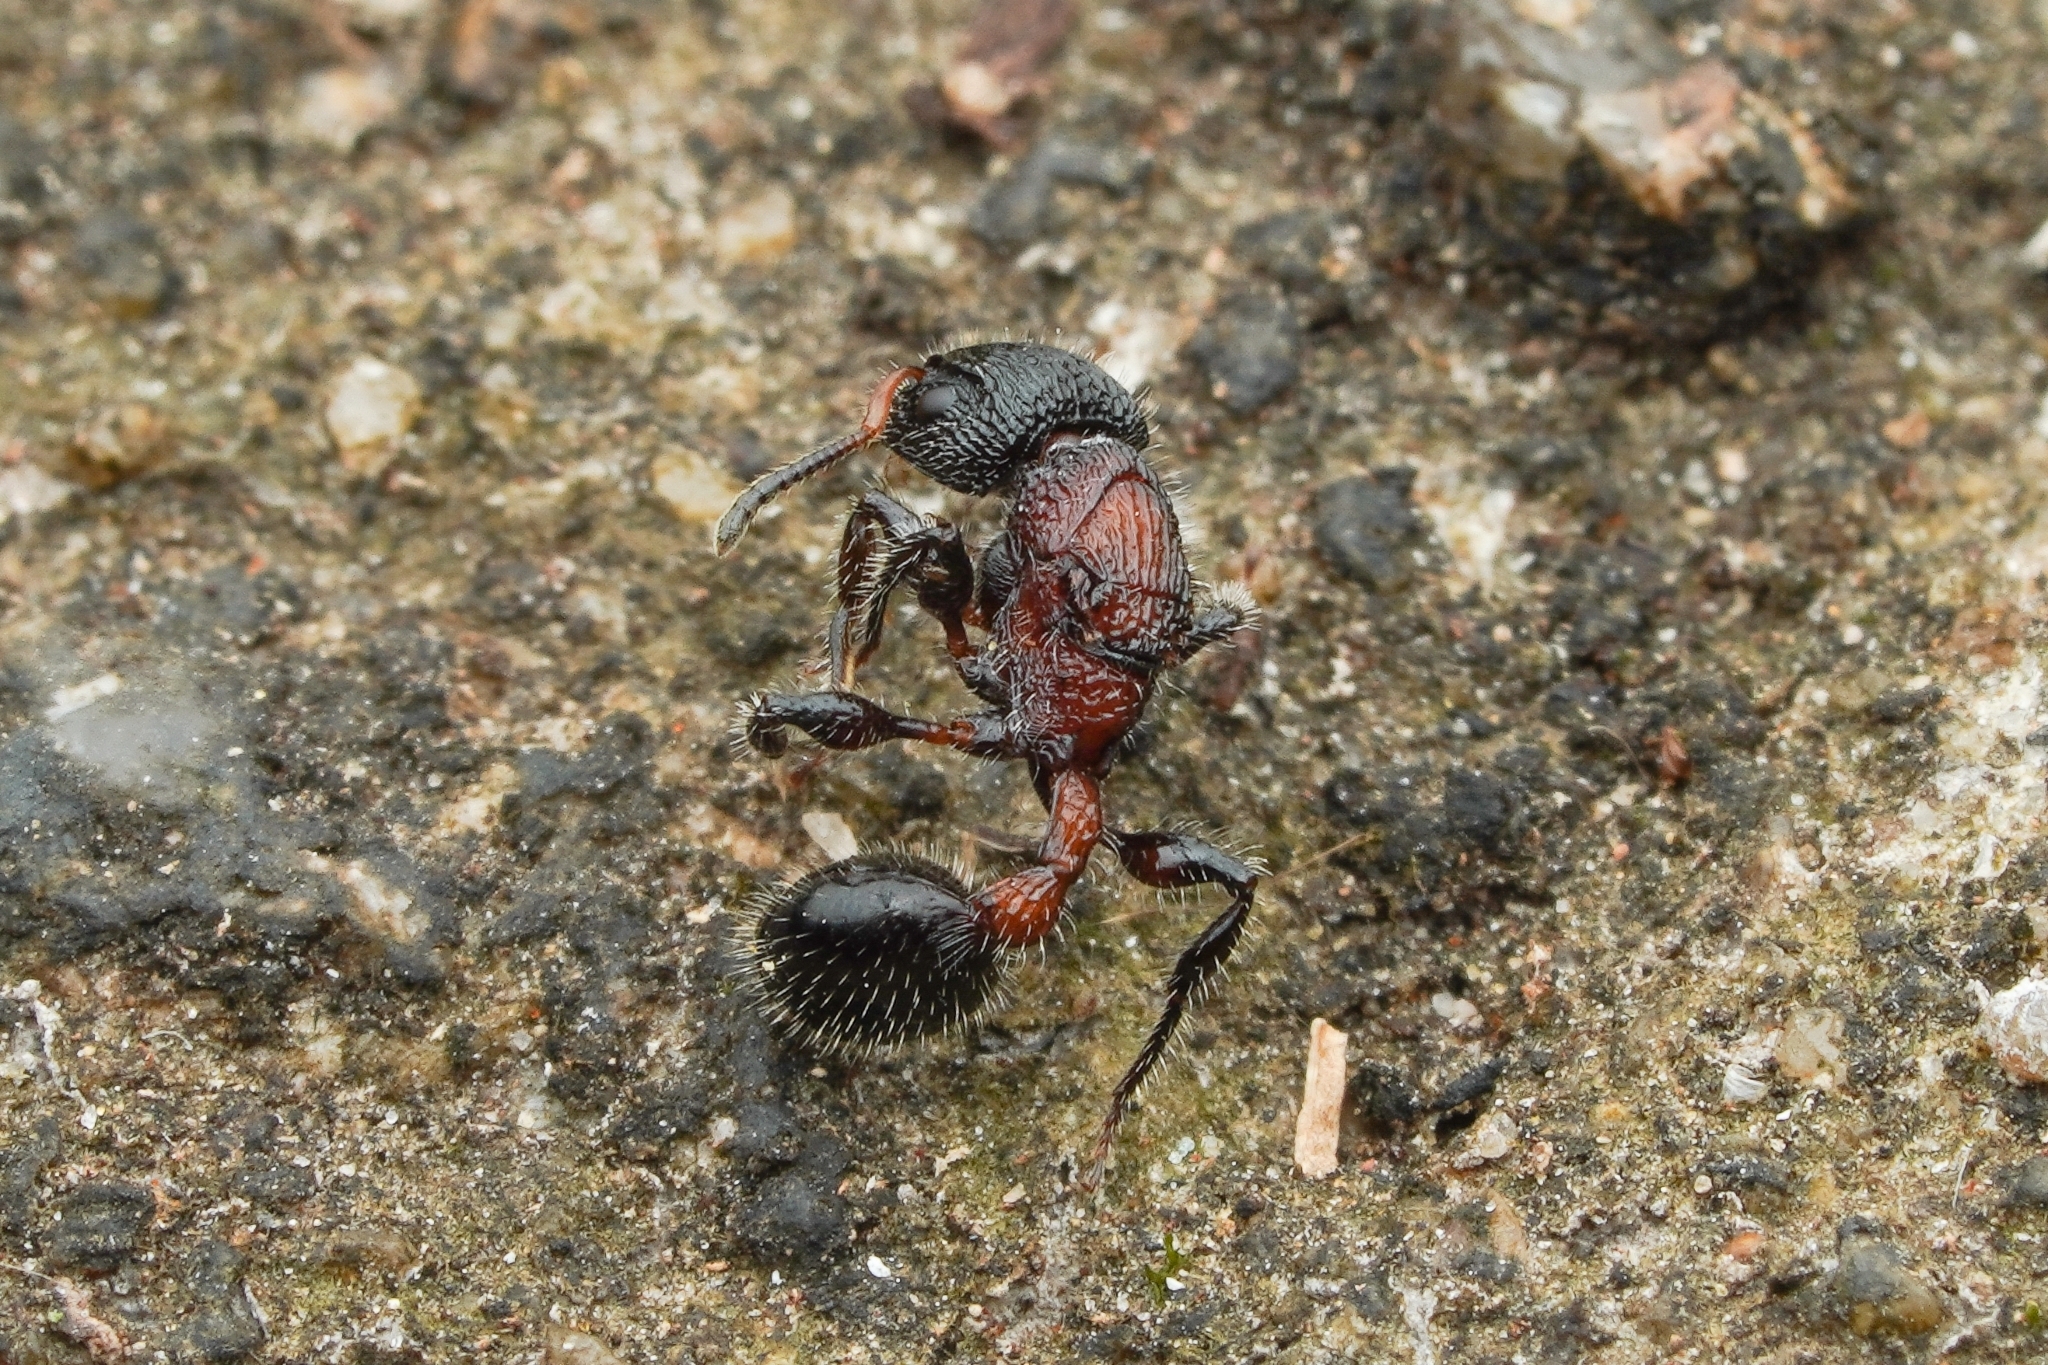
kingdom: Animalia
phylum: Arthropoda
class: Insecta
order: Hymenoptera
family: Formicidae
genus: Dilobocondyla
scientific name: Dilobocondyla fouqueti
